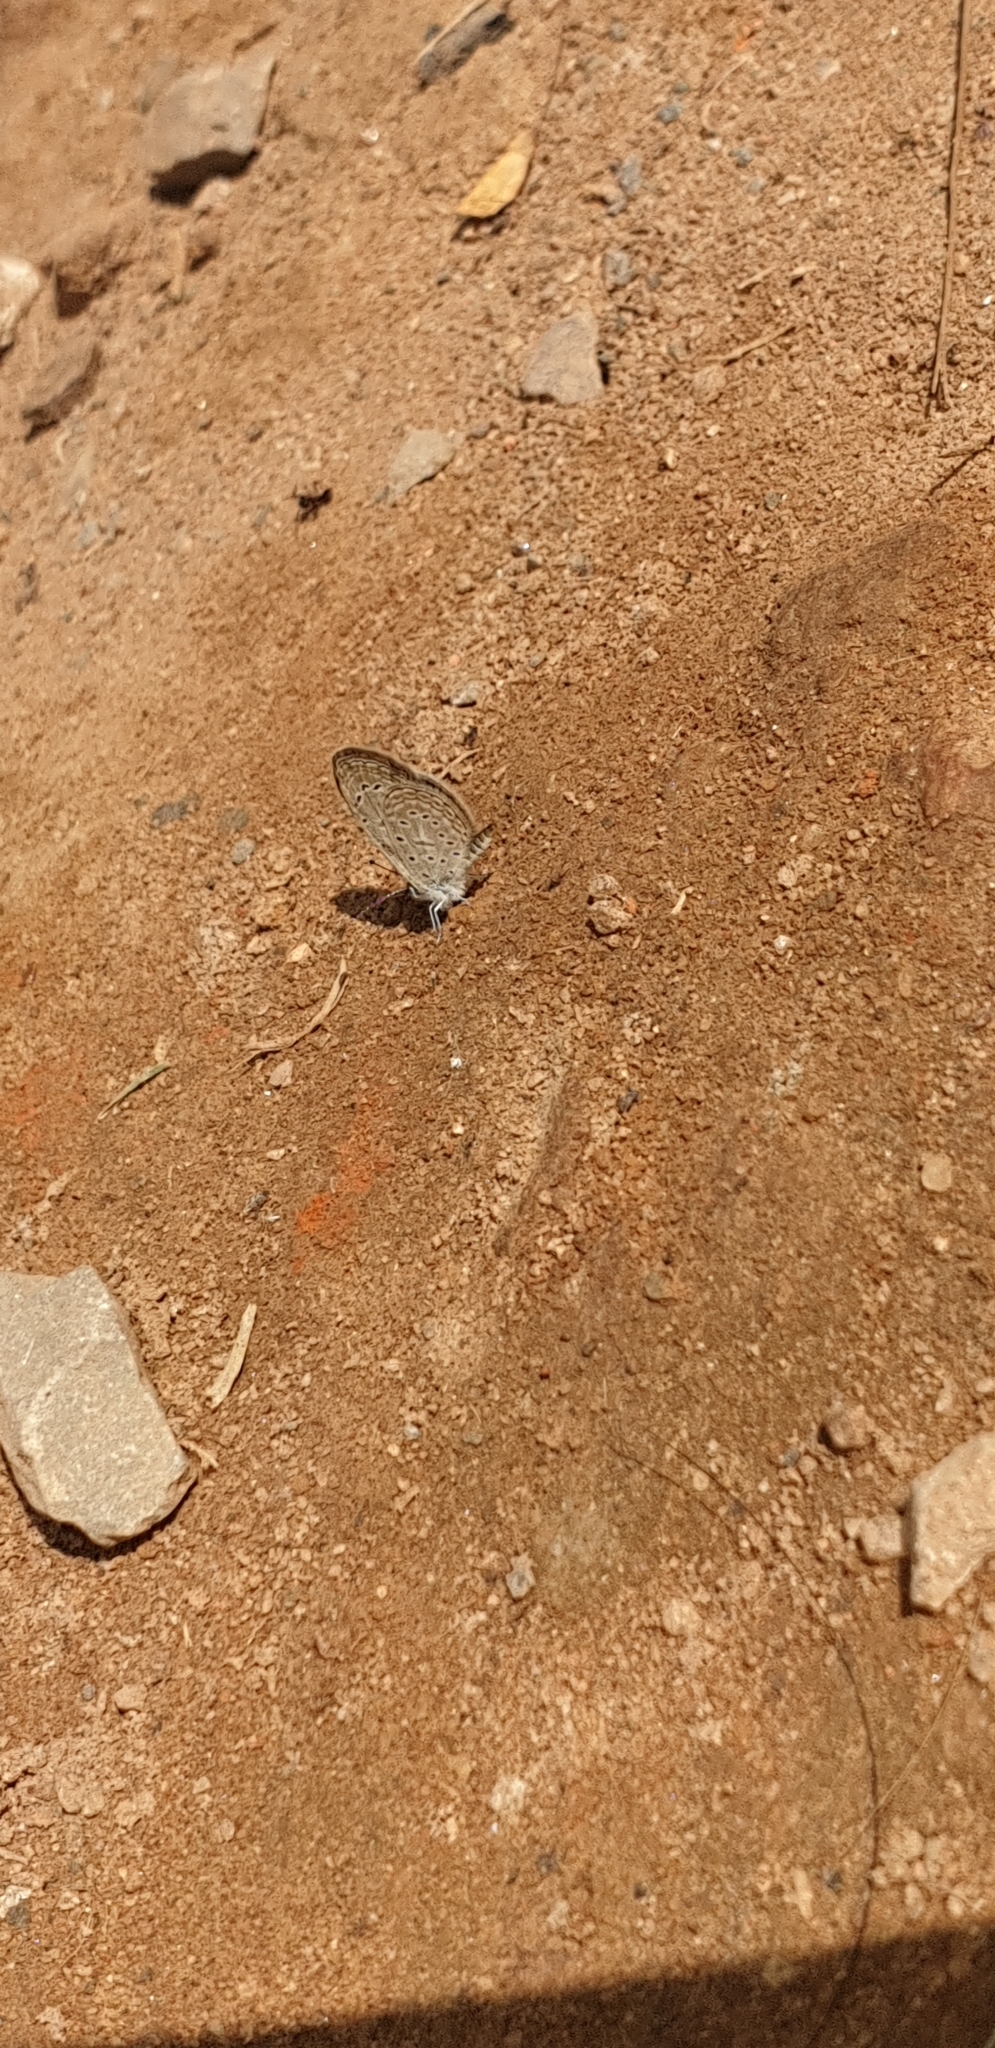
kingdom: Animalia
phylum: Arthropoda
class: Insecta
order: Lepidoptera
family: Lycaenidae
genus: Zizula
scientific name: Zizula hylax
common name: Gaika blue
